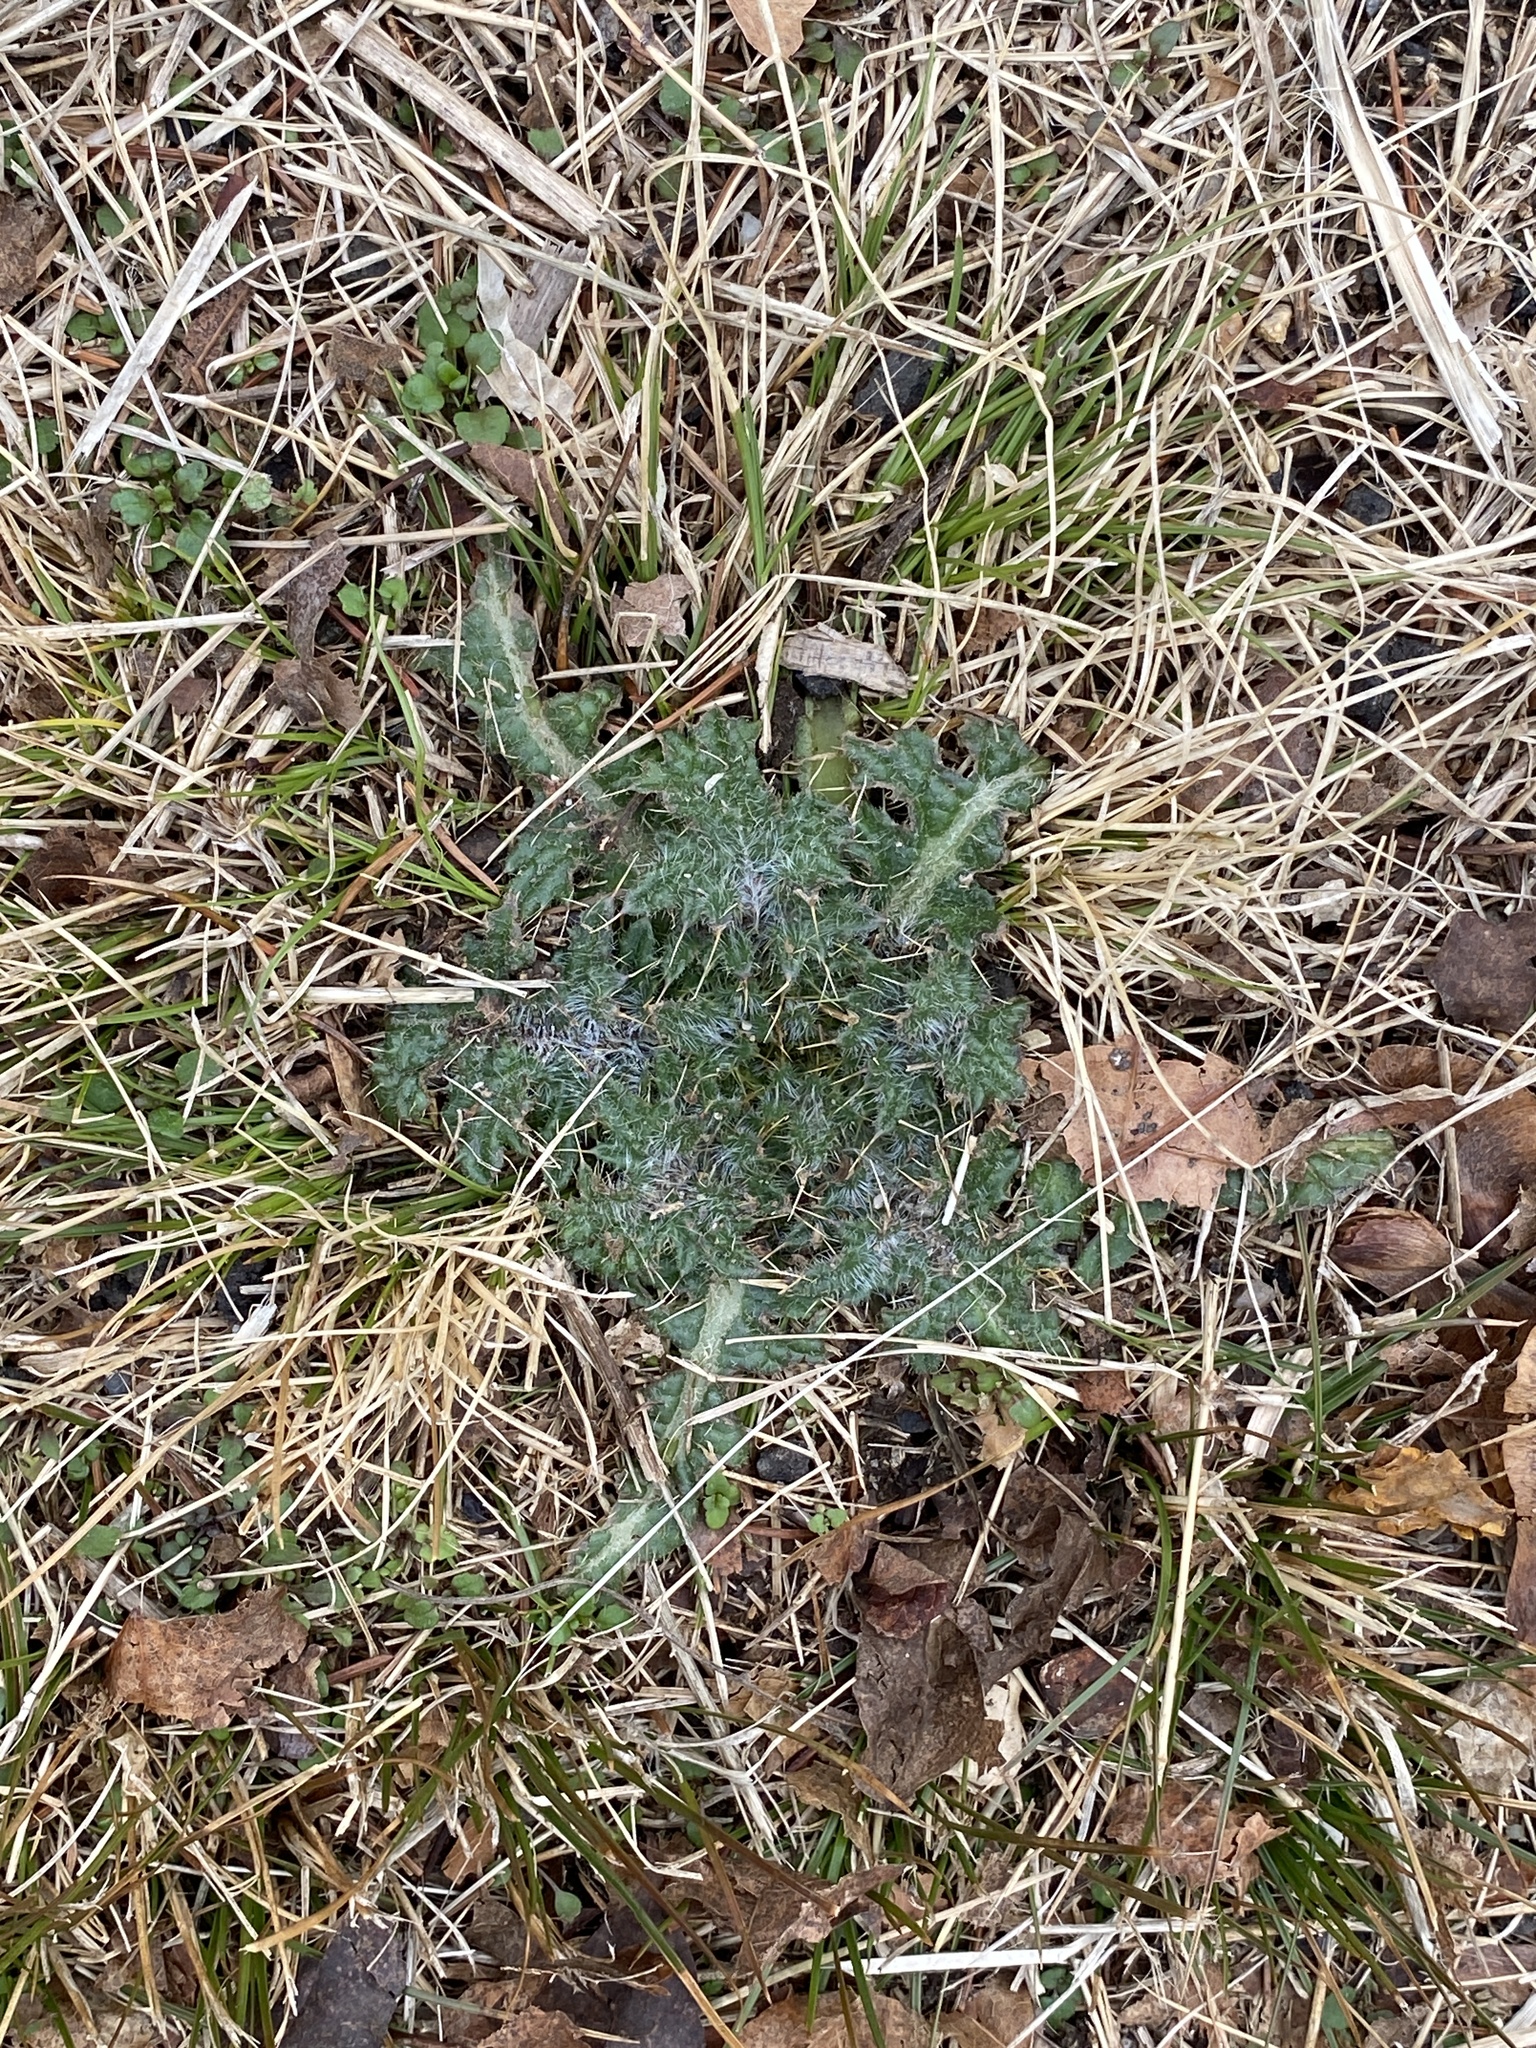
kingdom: Plantae
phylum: Tracheophyta
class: Magnoliopsida
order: Asterales
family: Asteraceae
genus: Cirsium
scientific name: Cirsium vulgare
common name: Bull thistle
